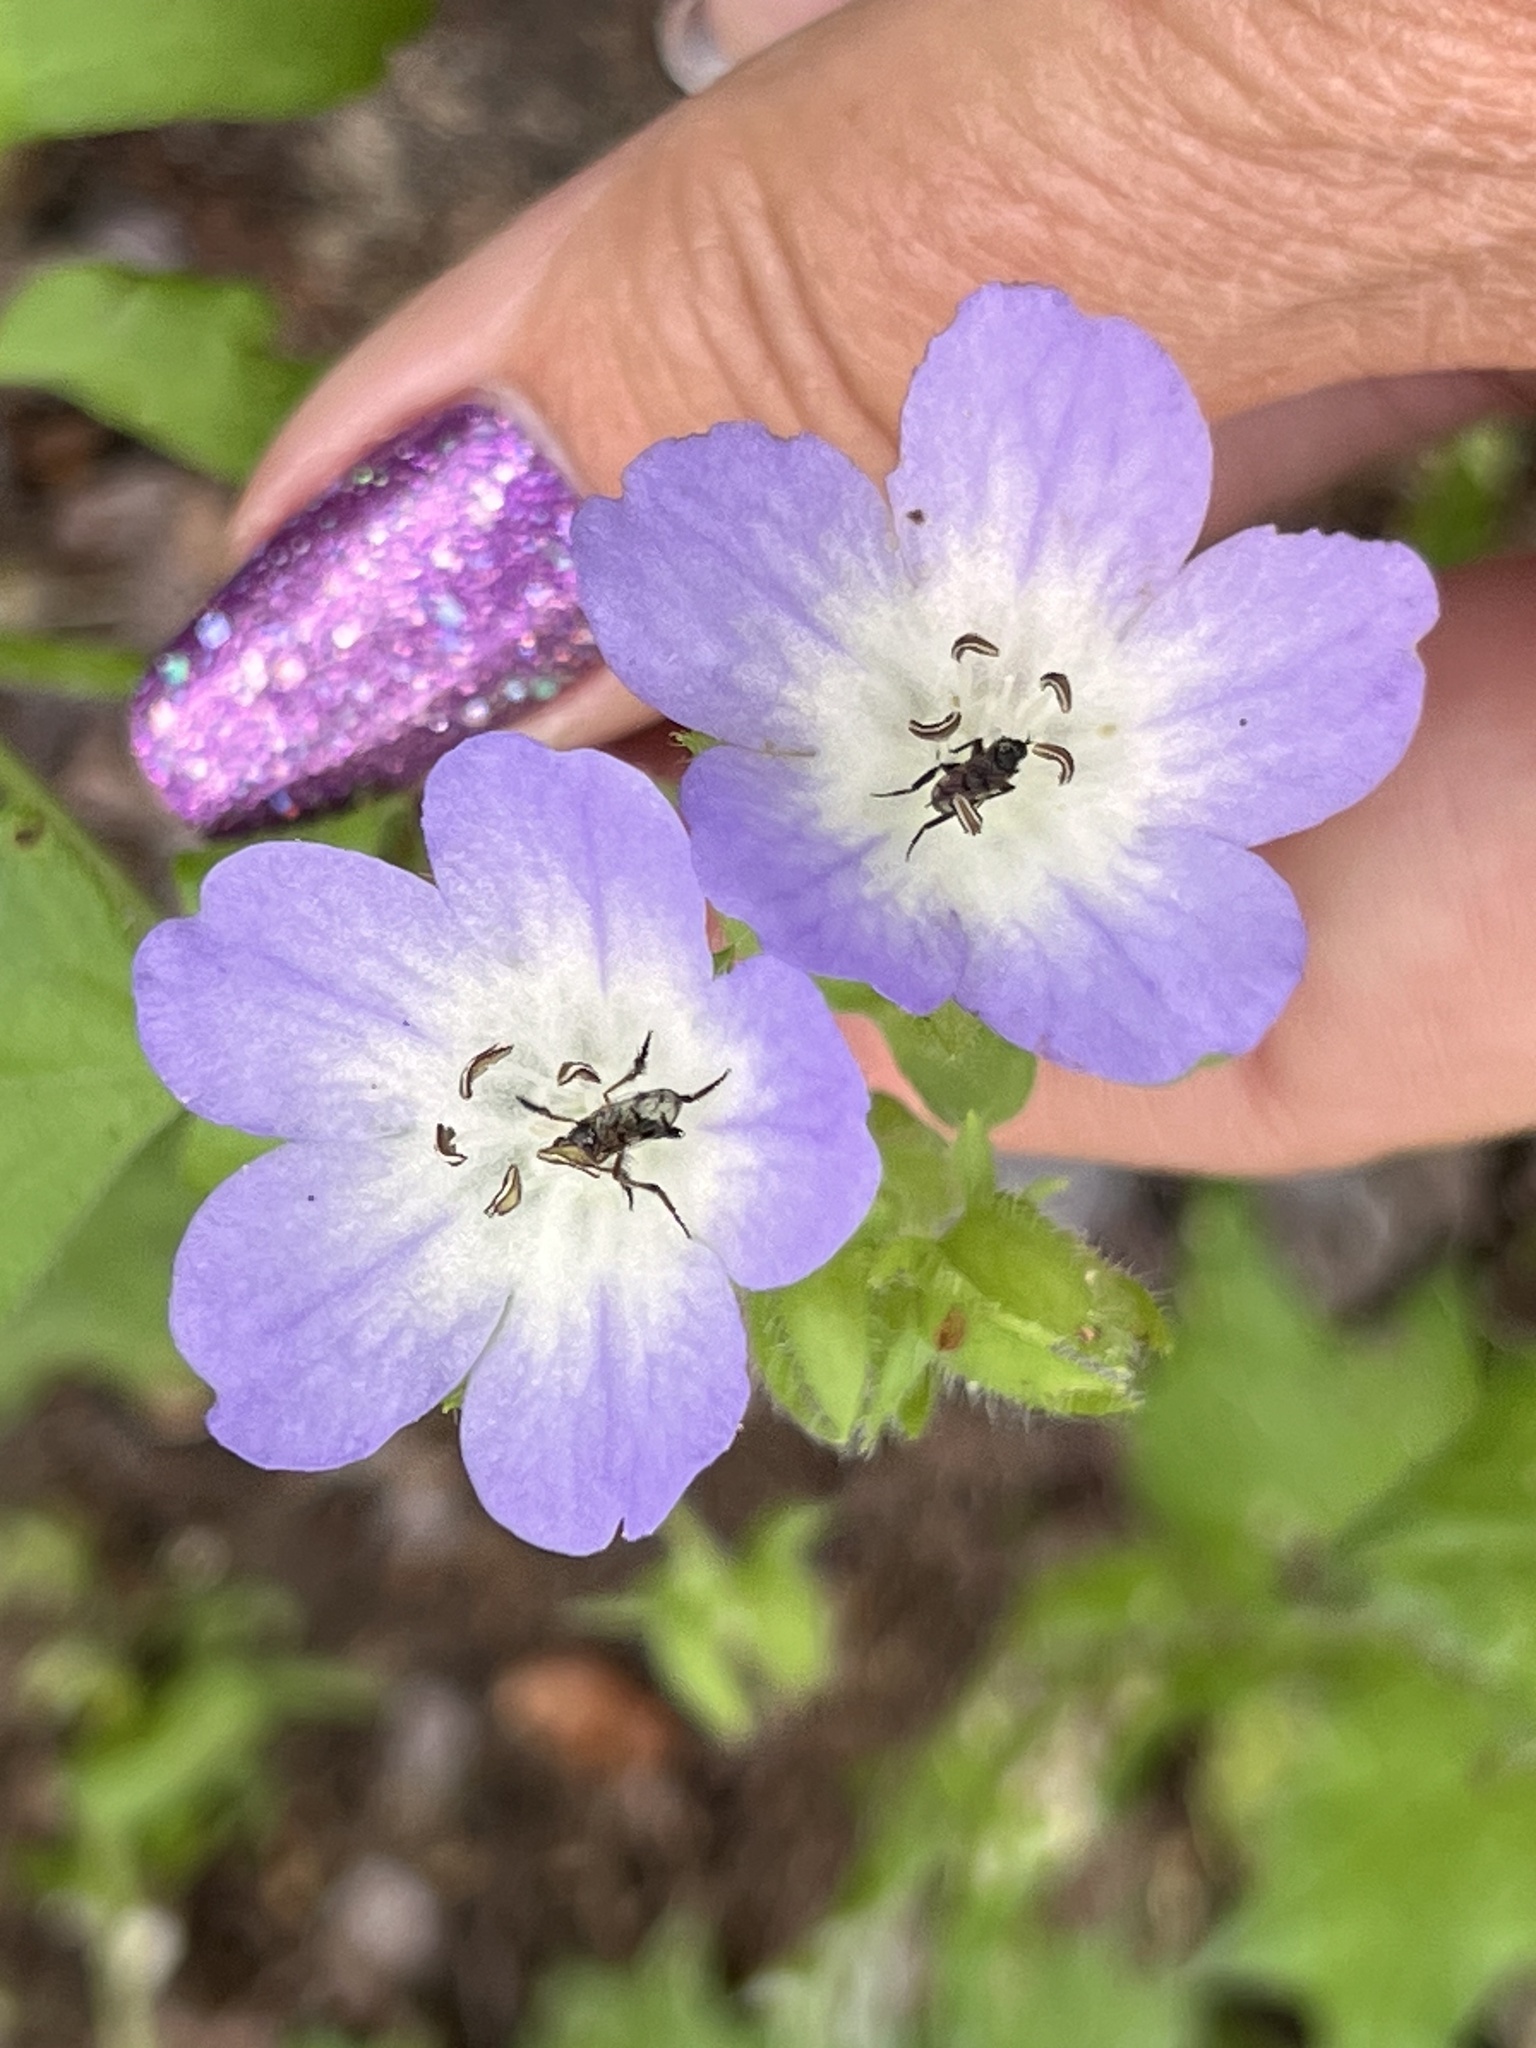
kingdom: Plantae
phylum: Tracheophyta
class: Magnoliopsida
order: Boraginales
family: Hydrophyllaceae
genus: Nemophila
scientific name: Nemophila phacelioides
